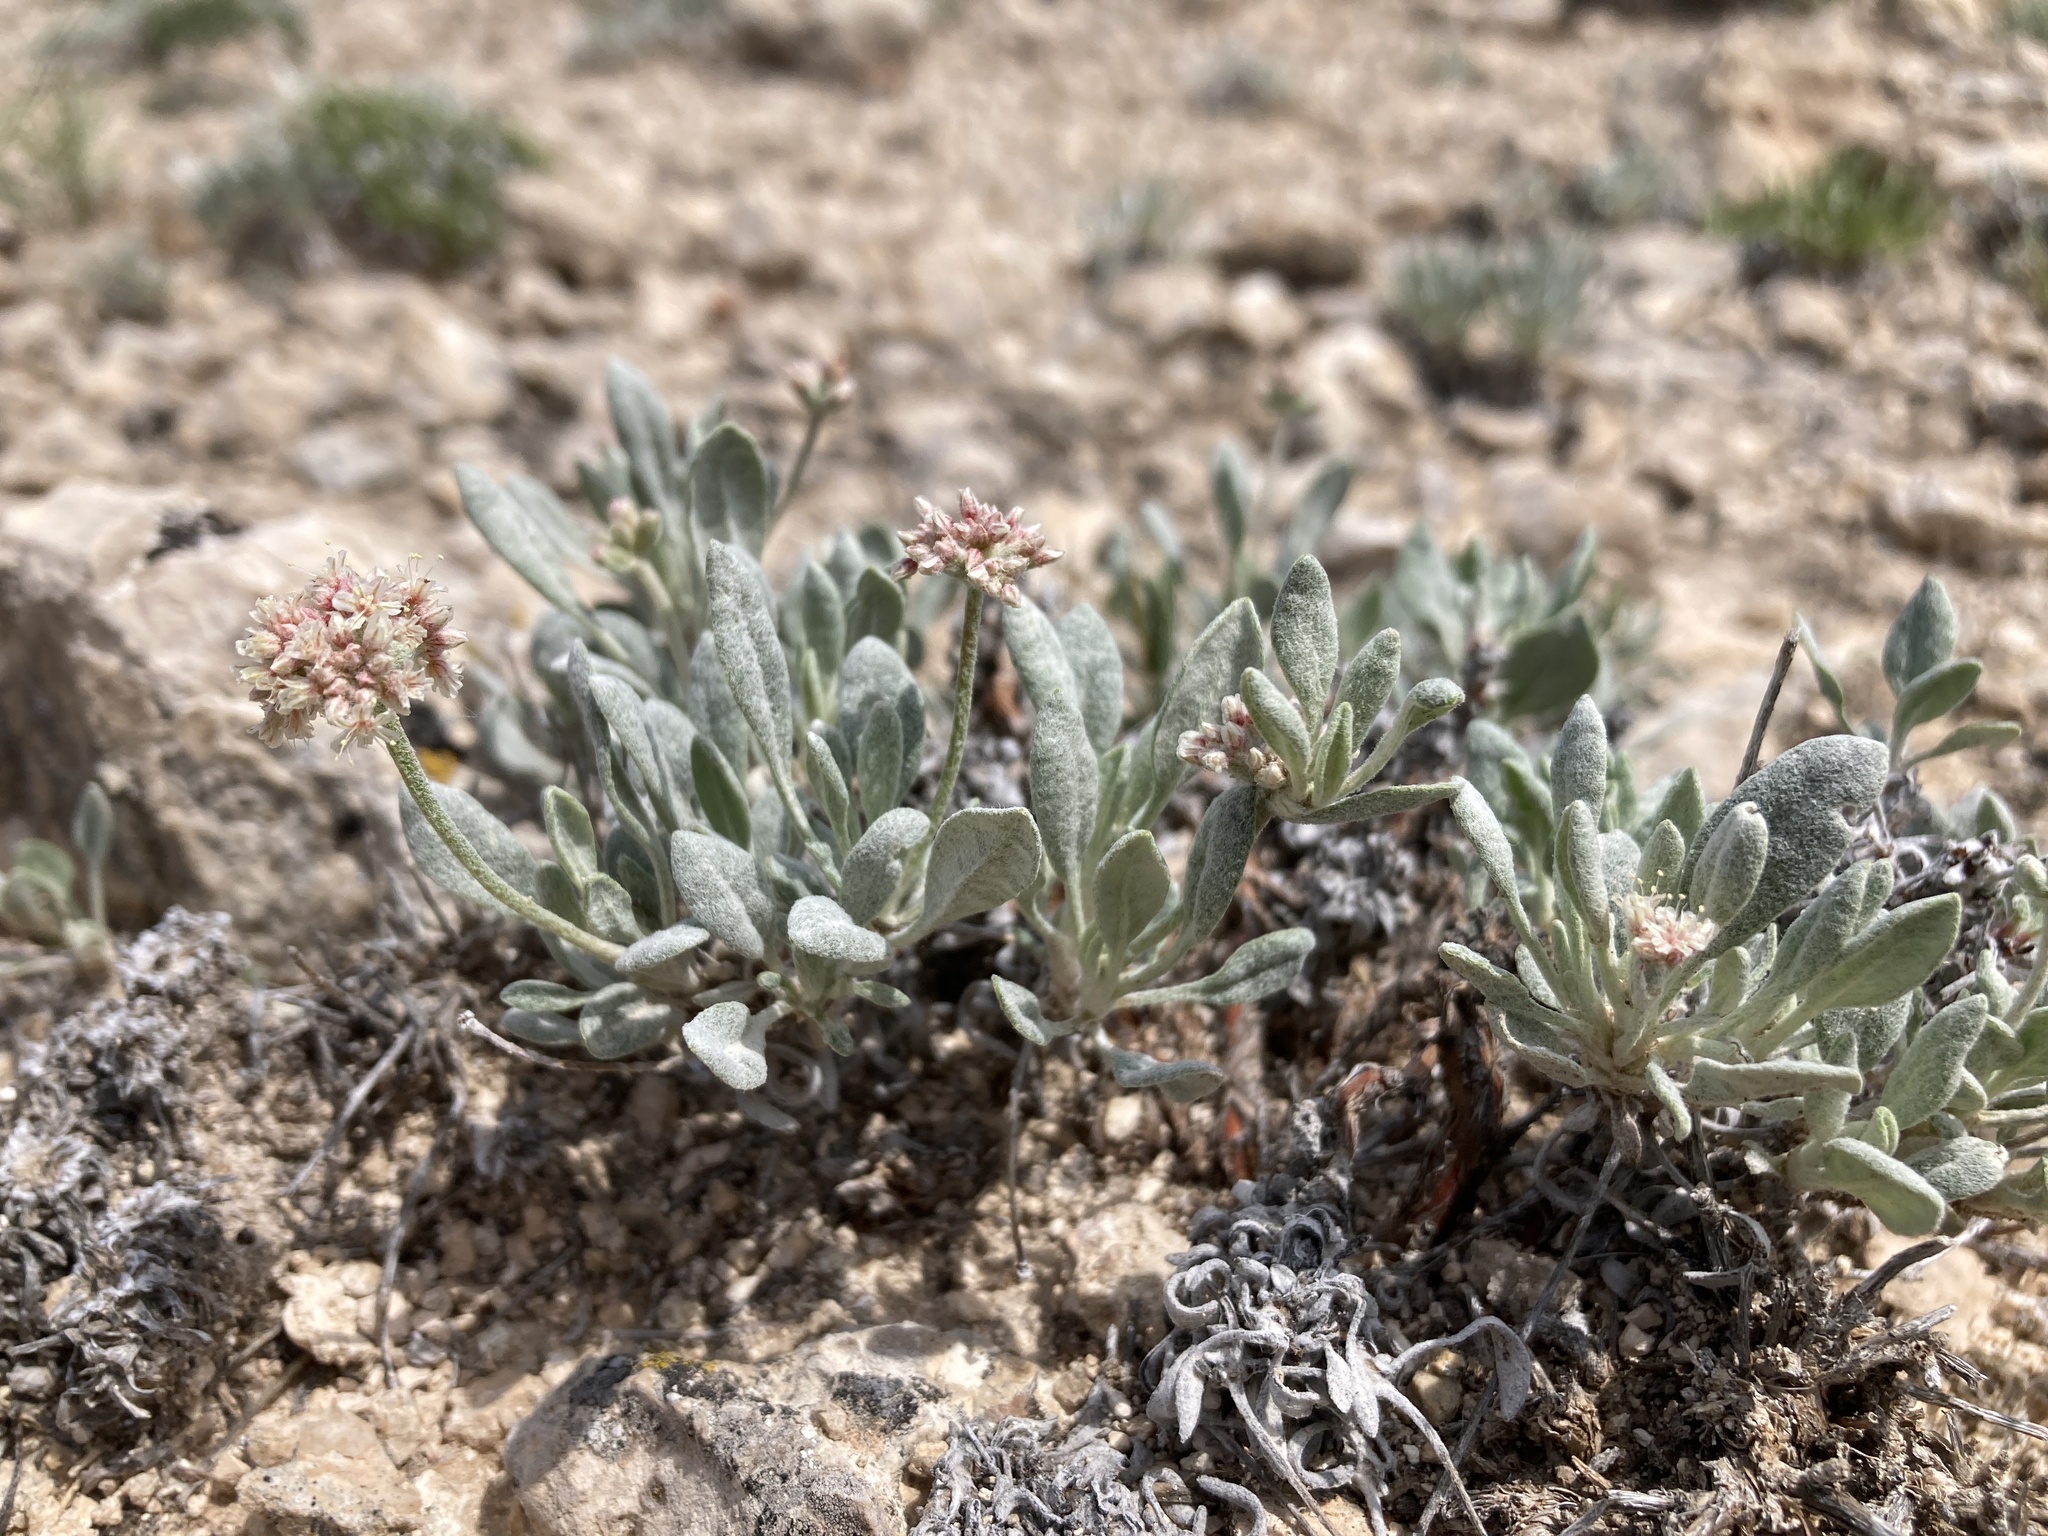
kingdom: Plantae
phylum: Tracheophyta
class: Magnoliopsida
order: Caryophyllales
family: Polygonaceae
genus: Eriogonum
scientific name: Eriogonum pauciflorum
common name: Few-flower wild buckwheat
